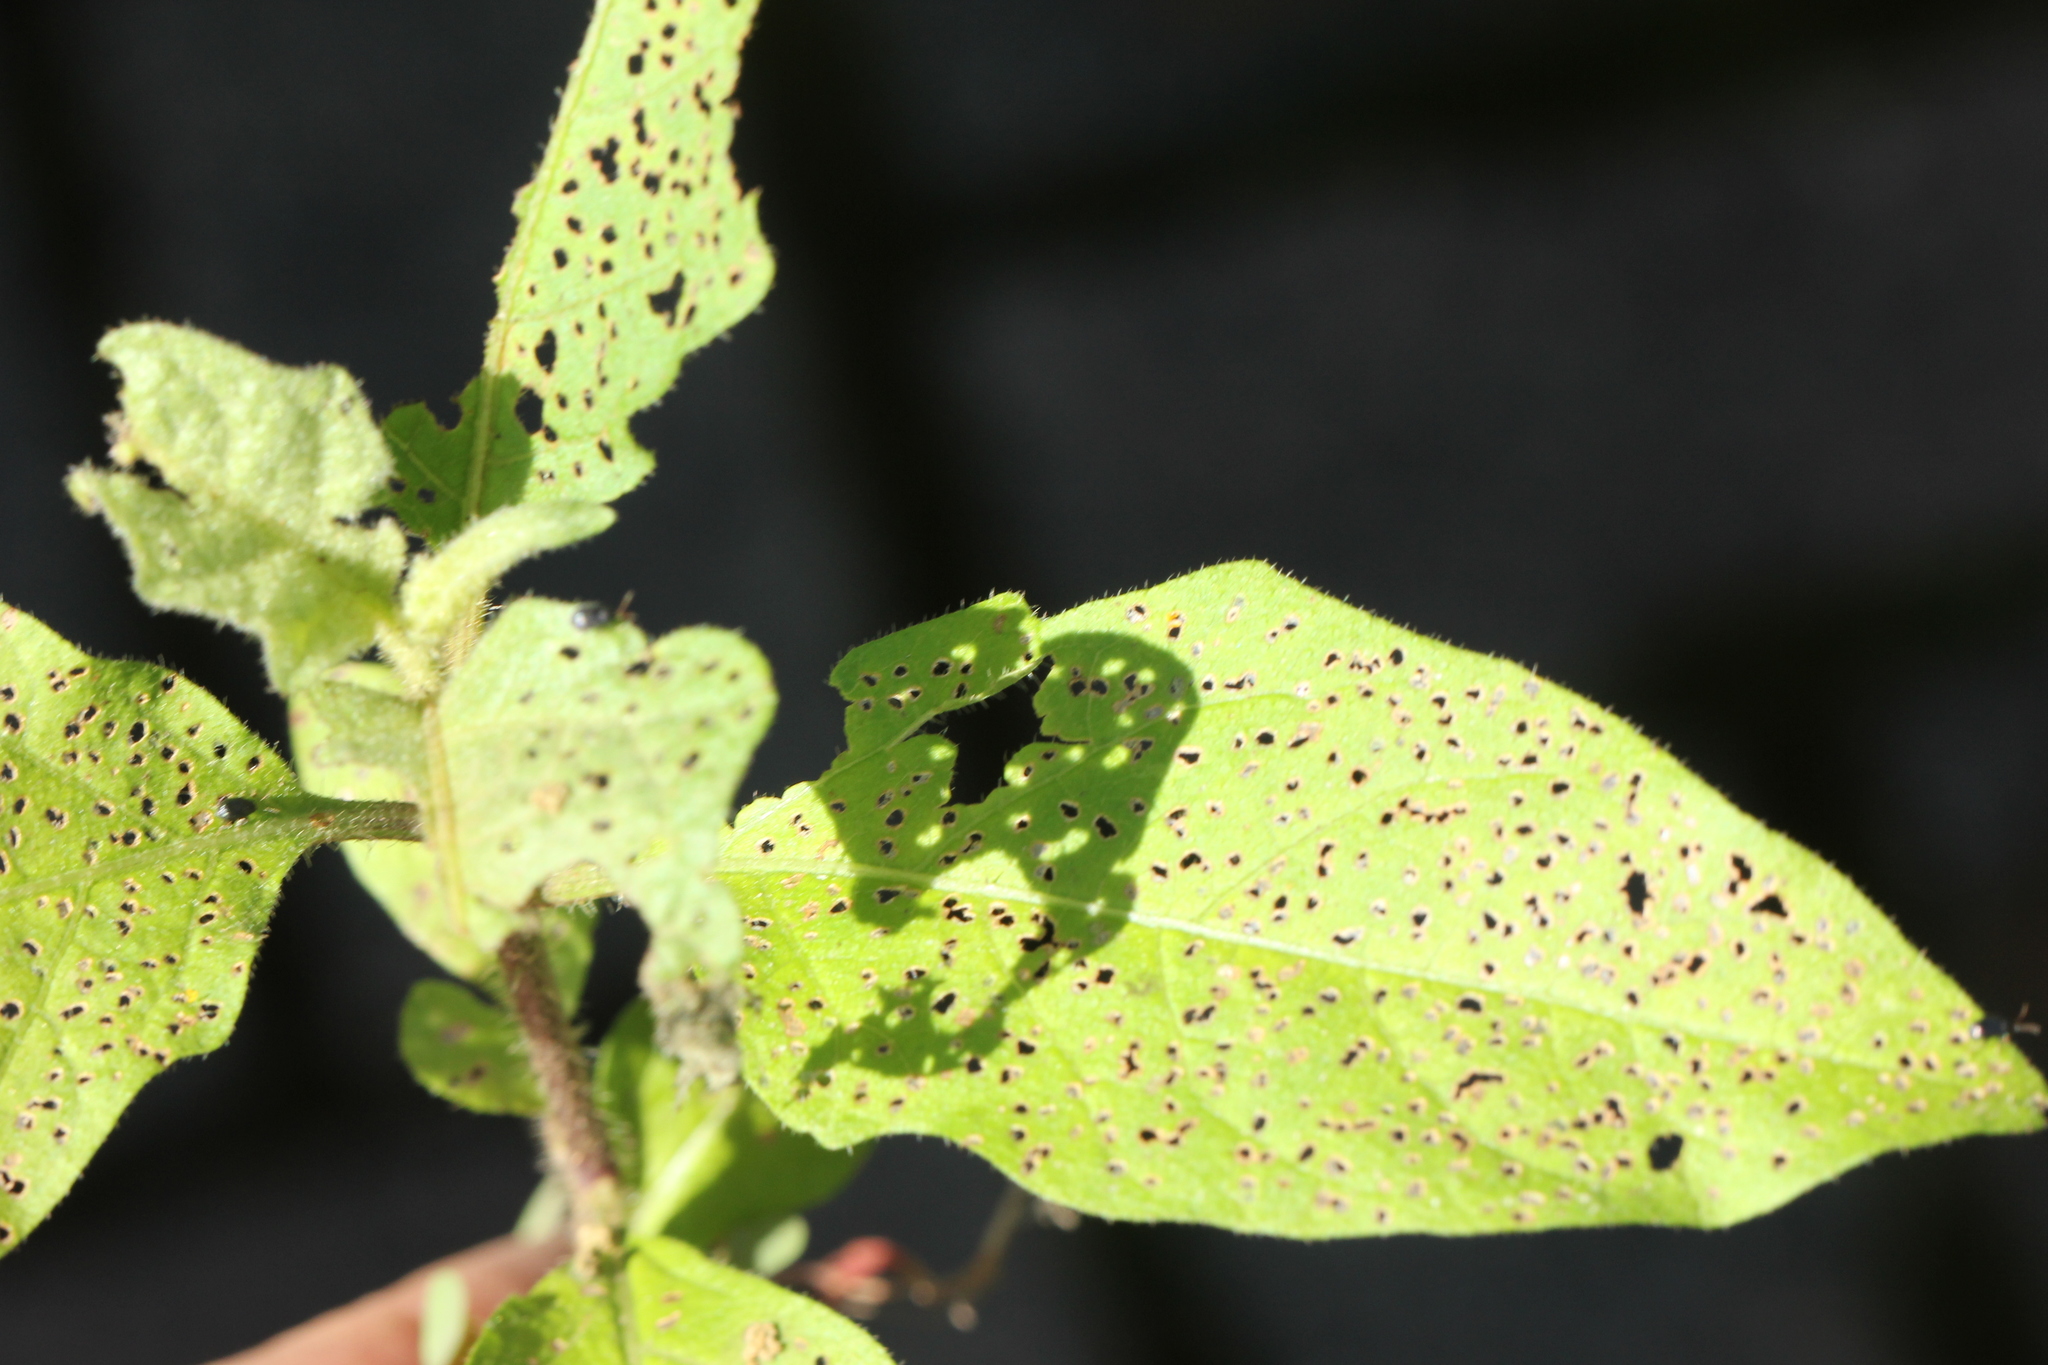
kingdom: Plantae
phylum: Tracheophyta
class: Magnoliopsida
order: Solanales
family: Solanaceae
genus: Solanum
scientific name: Solanum carolinense
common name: Horse-nettle
